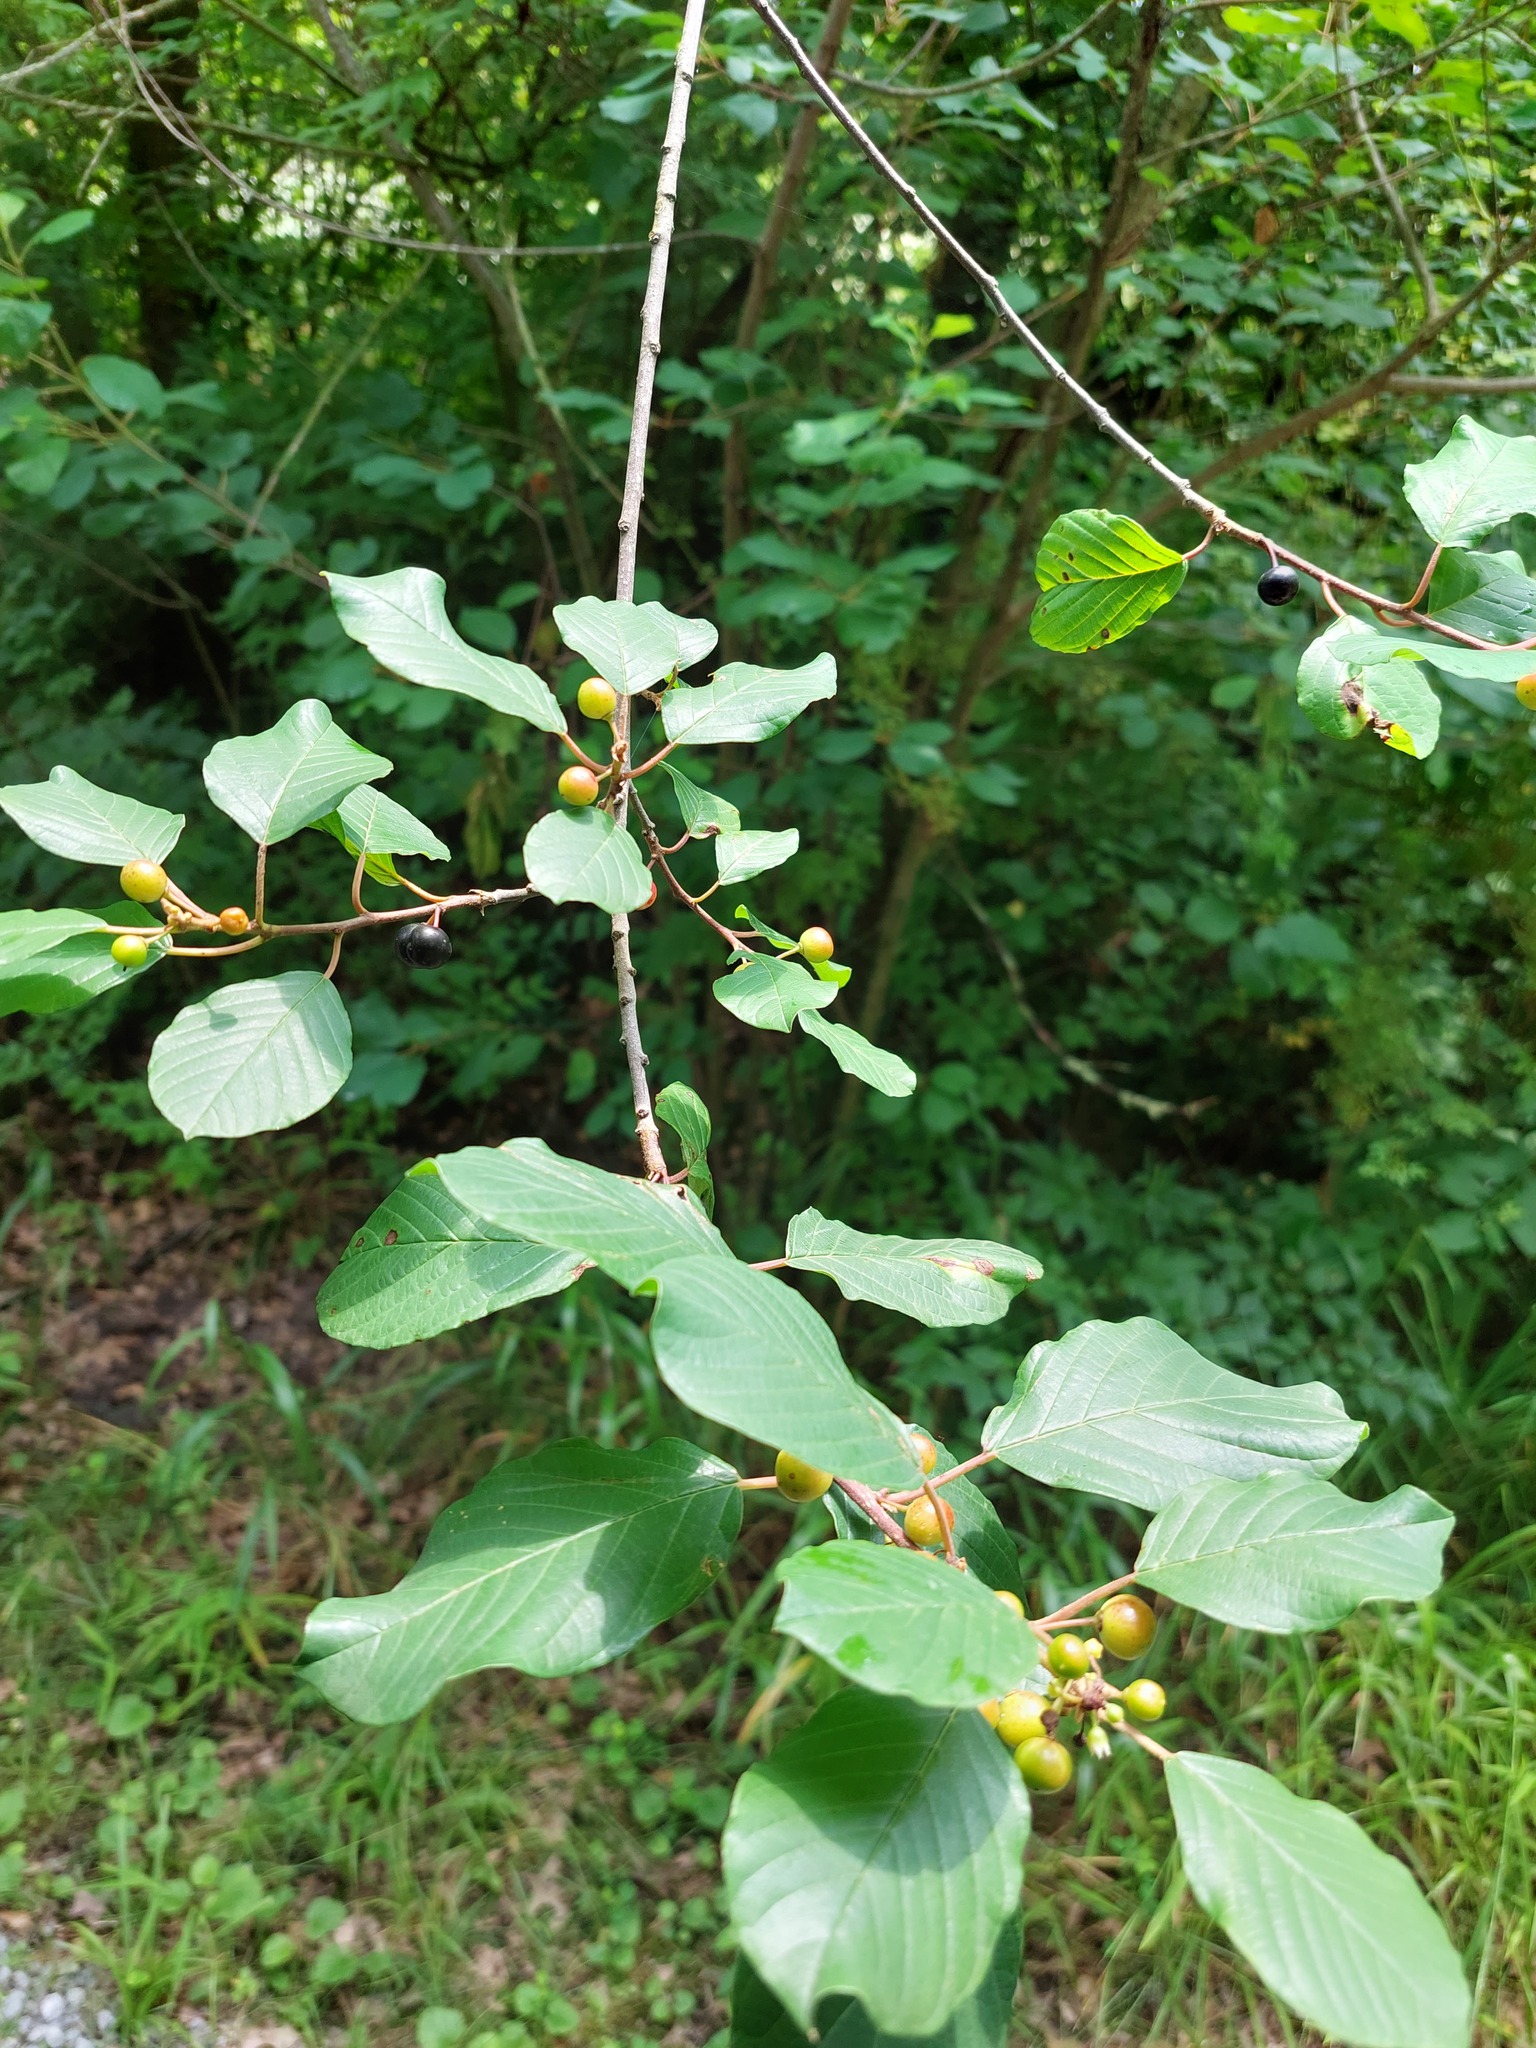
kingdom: Plantae
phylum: Tracheophyta
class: Magnoliopsida
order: Rosales
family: Rhamnaceae
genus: Frangula
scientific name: Frangula alnus
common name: Alder buckthorn
